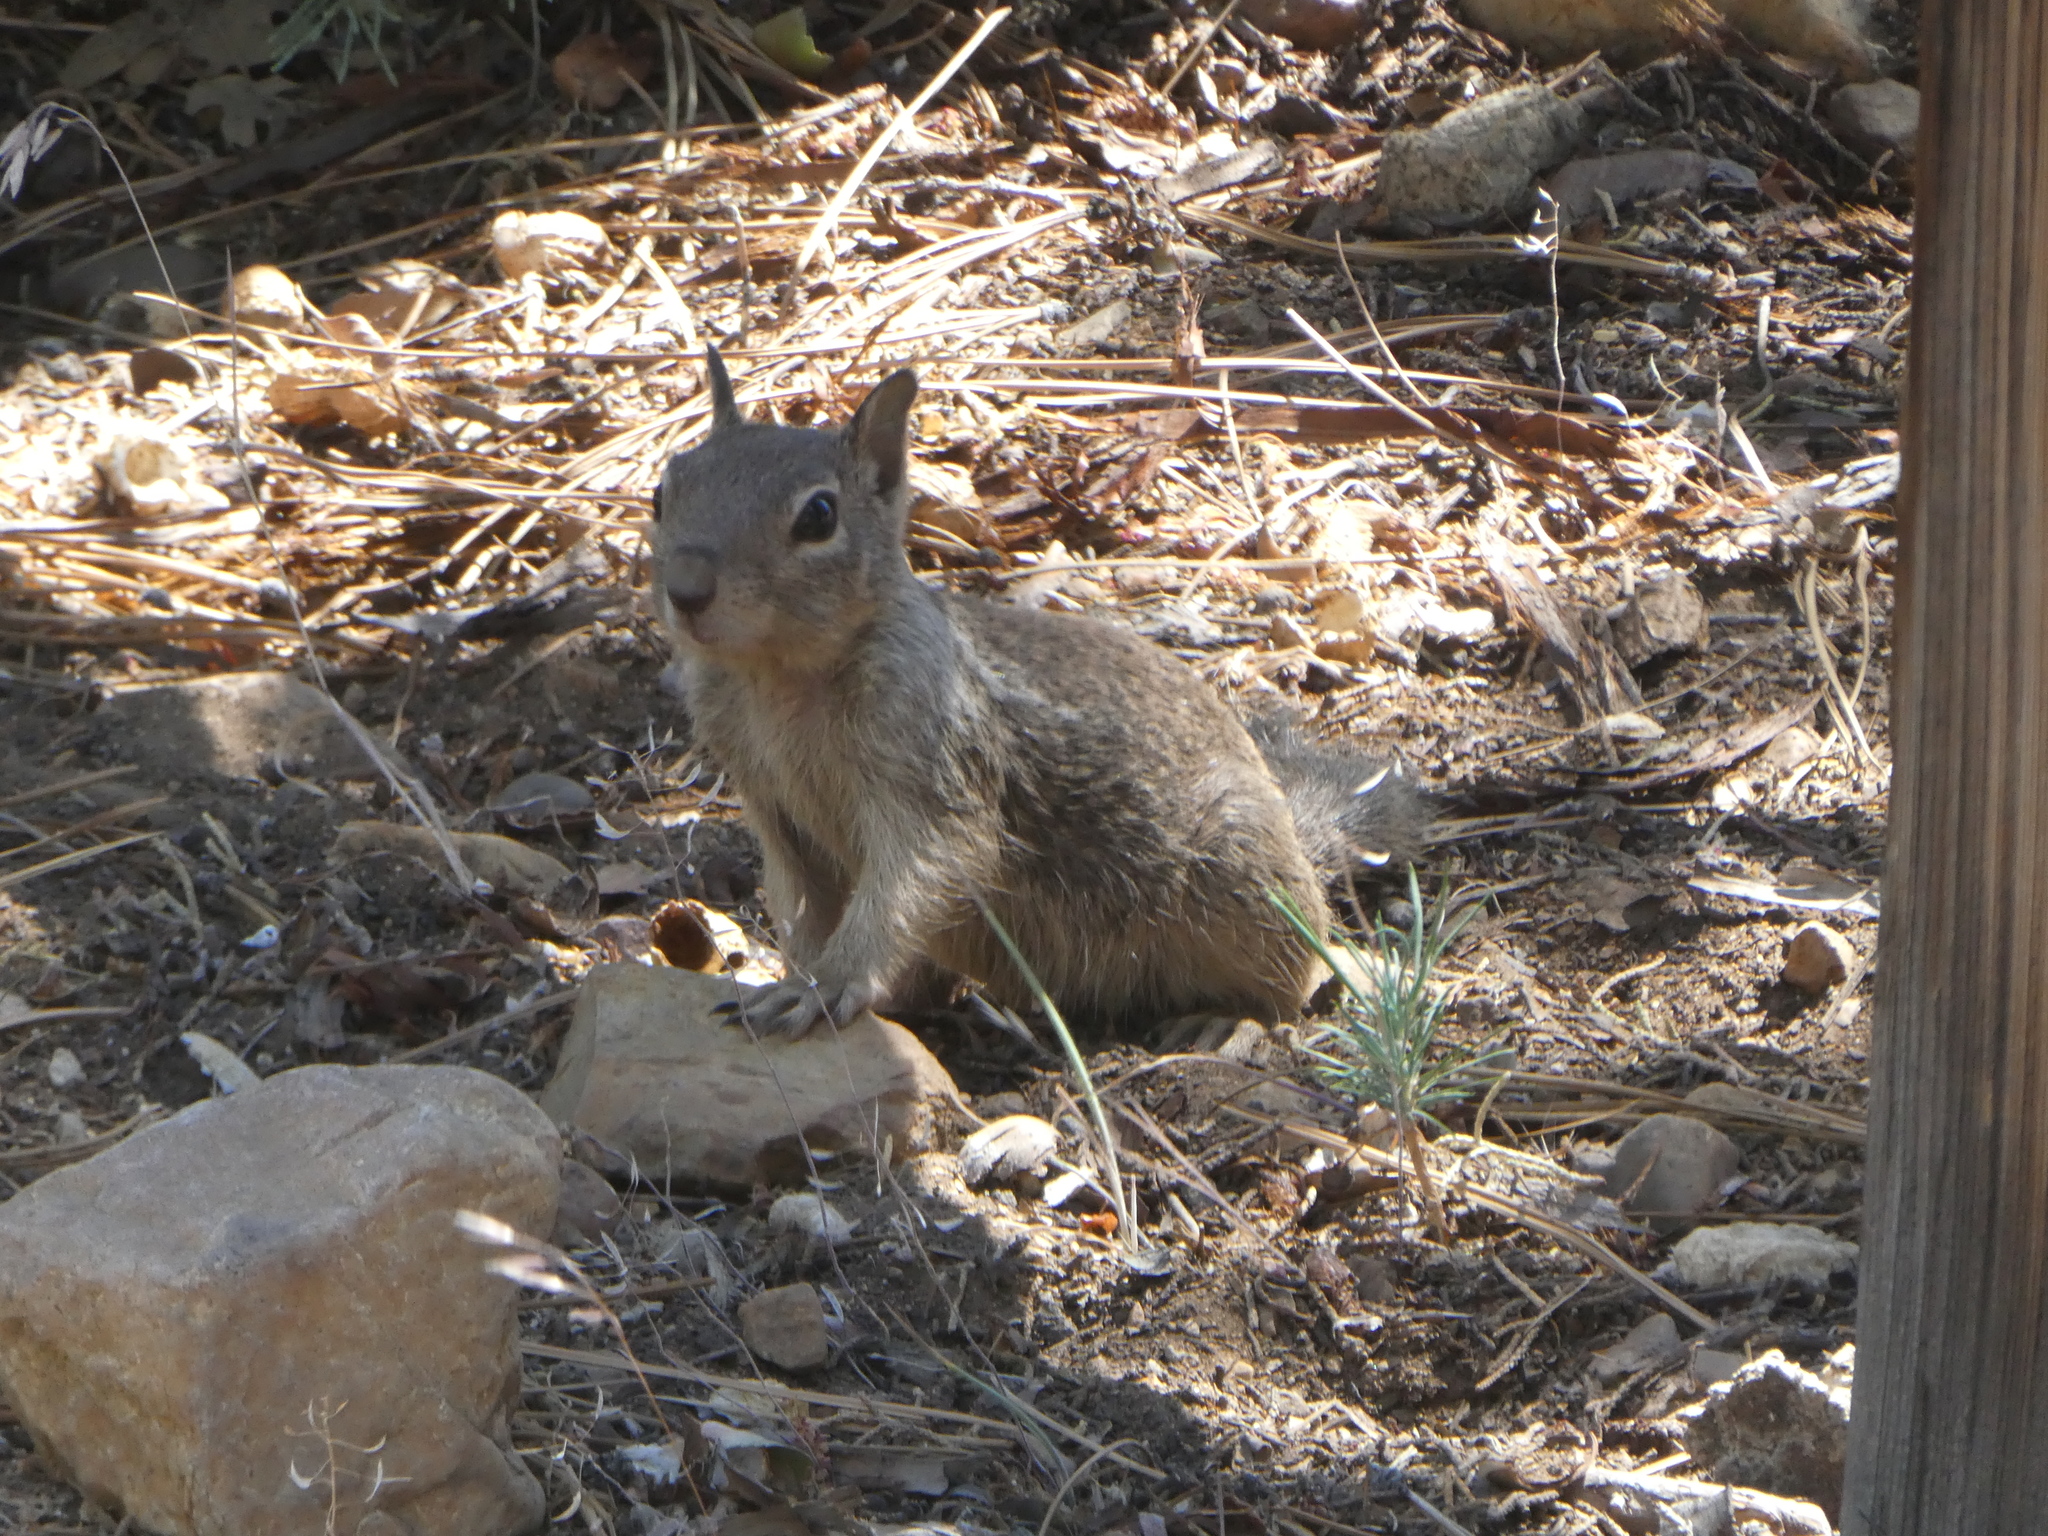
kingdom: Animalia
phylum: Chordata
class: Mammalia
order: Rodentia
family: Sciuridae
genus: Otospermophilus
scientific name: Otospermophilus beecheyi
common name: California ground squirrel
